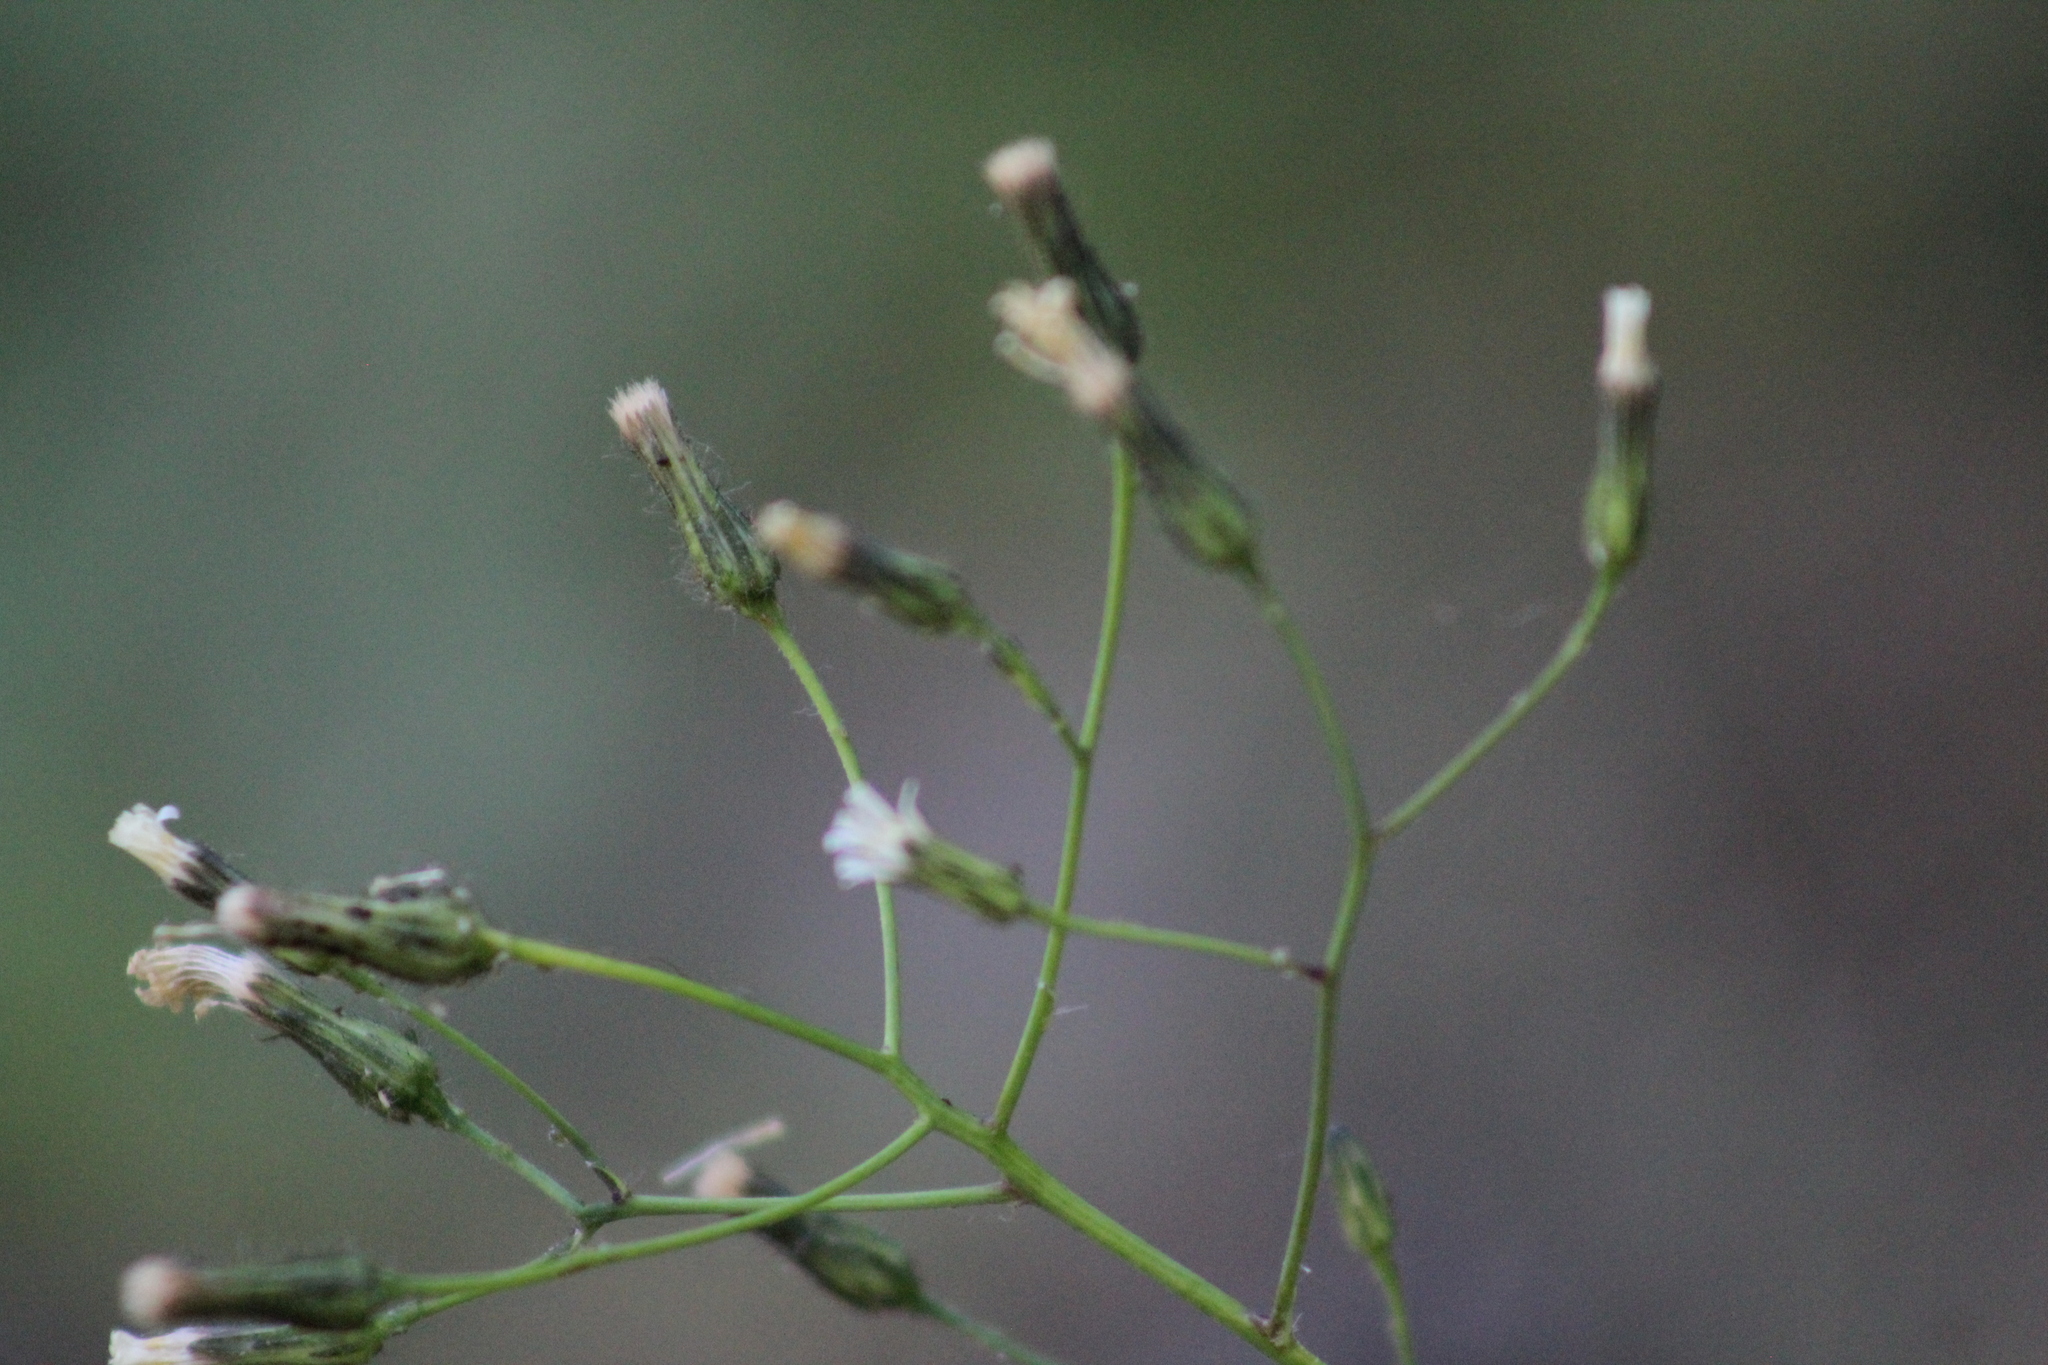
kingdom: Plantae
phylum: Tracheophyta
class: Magnoliopsida
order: Asterales
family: Asteraceae
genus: Hieracium
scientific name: Hieracium albiflorum
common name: White hawkweed
